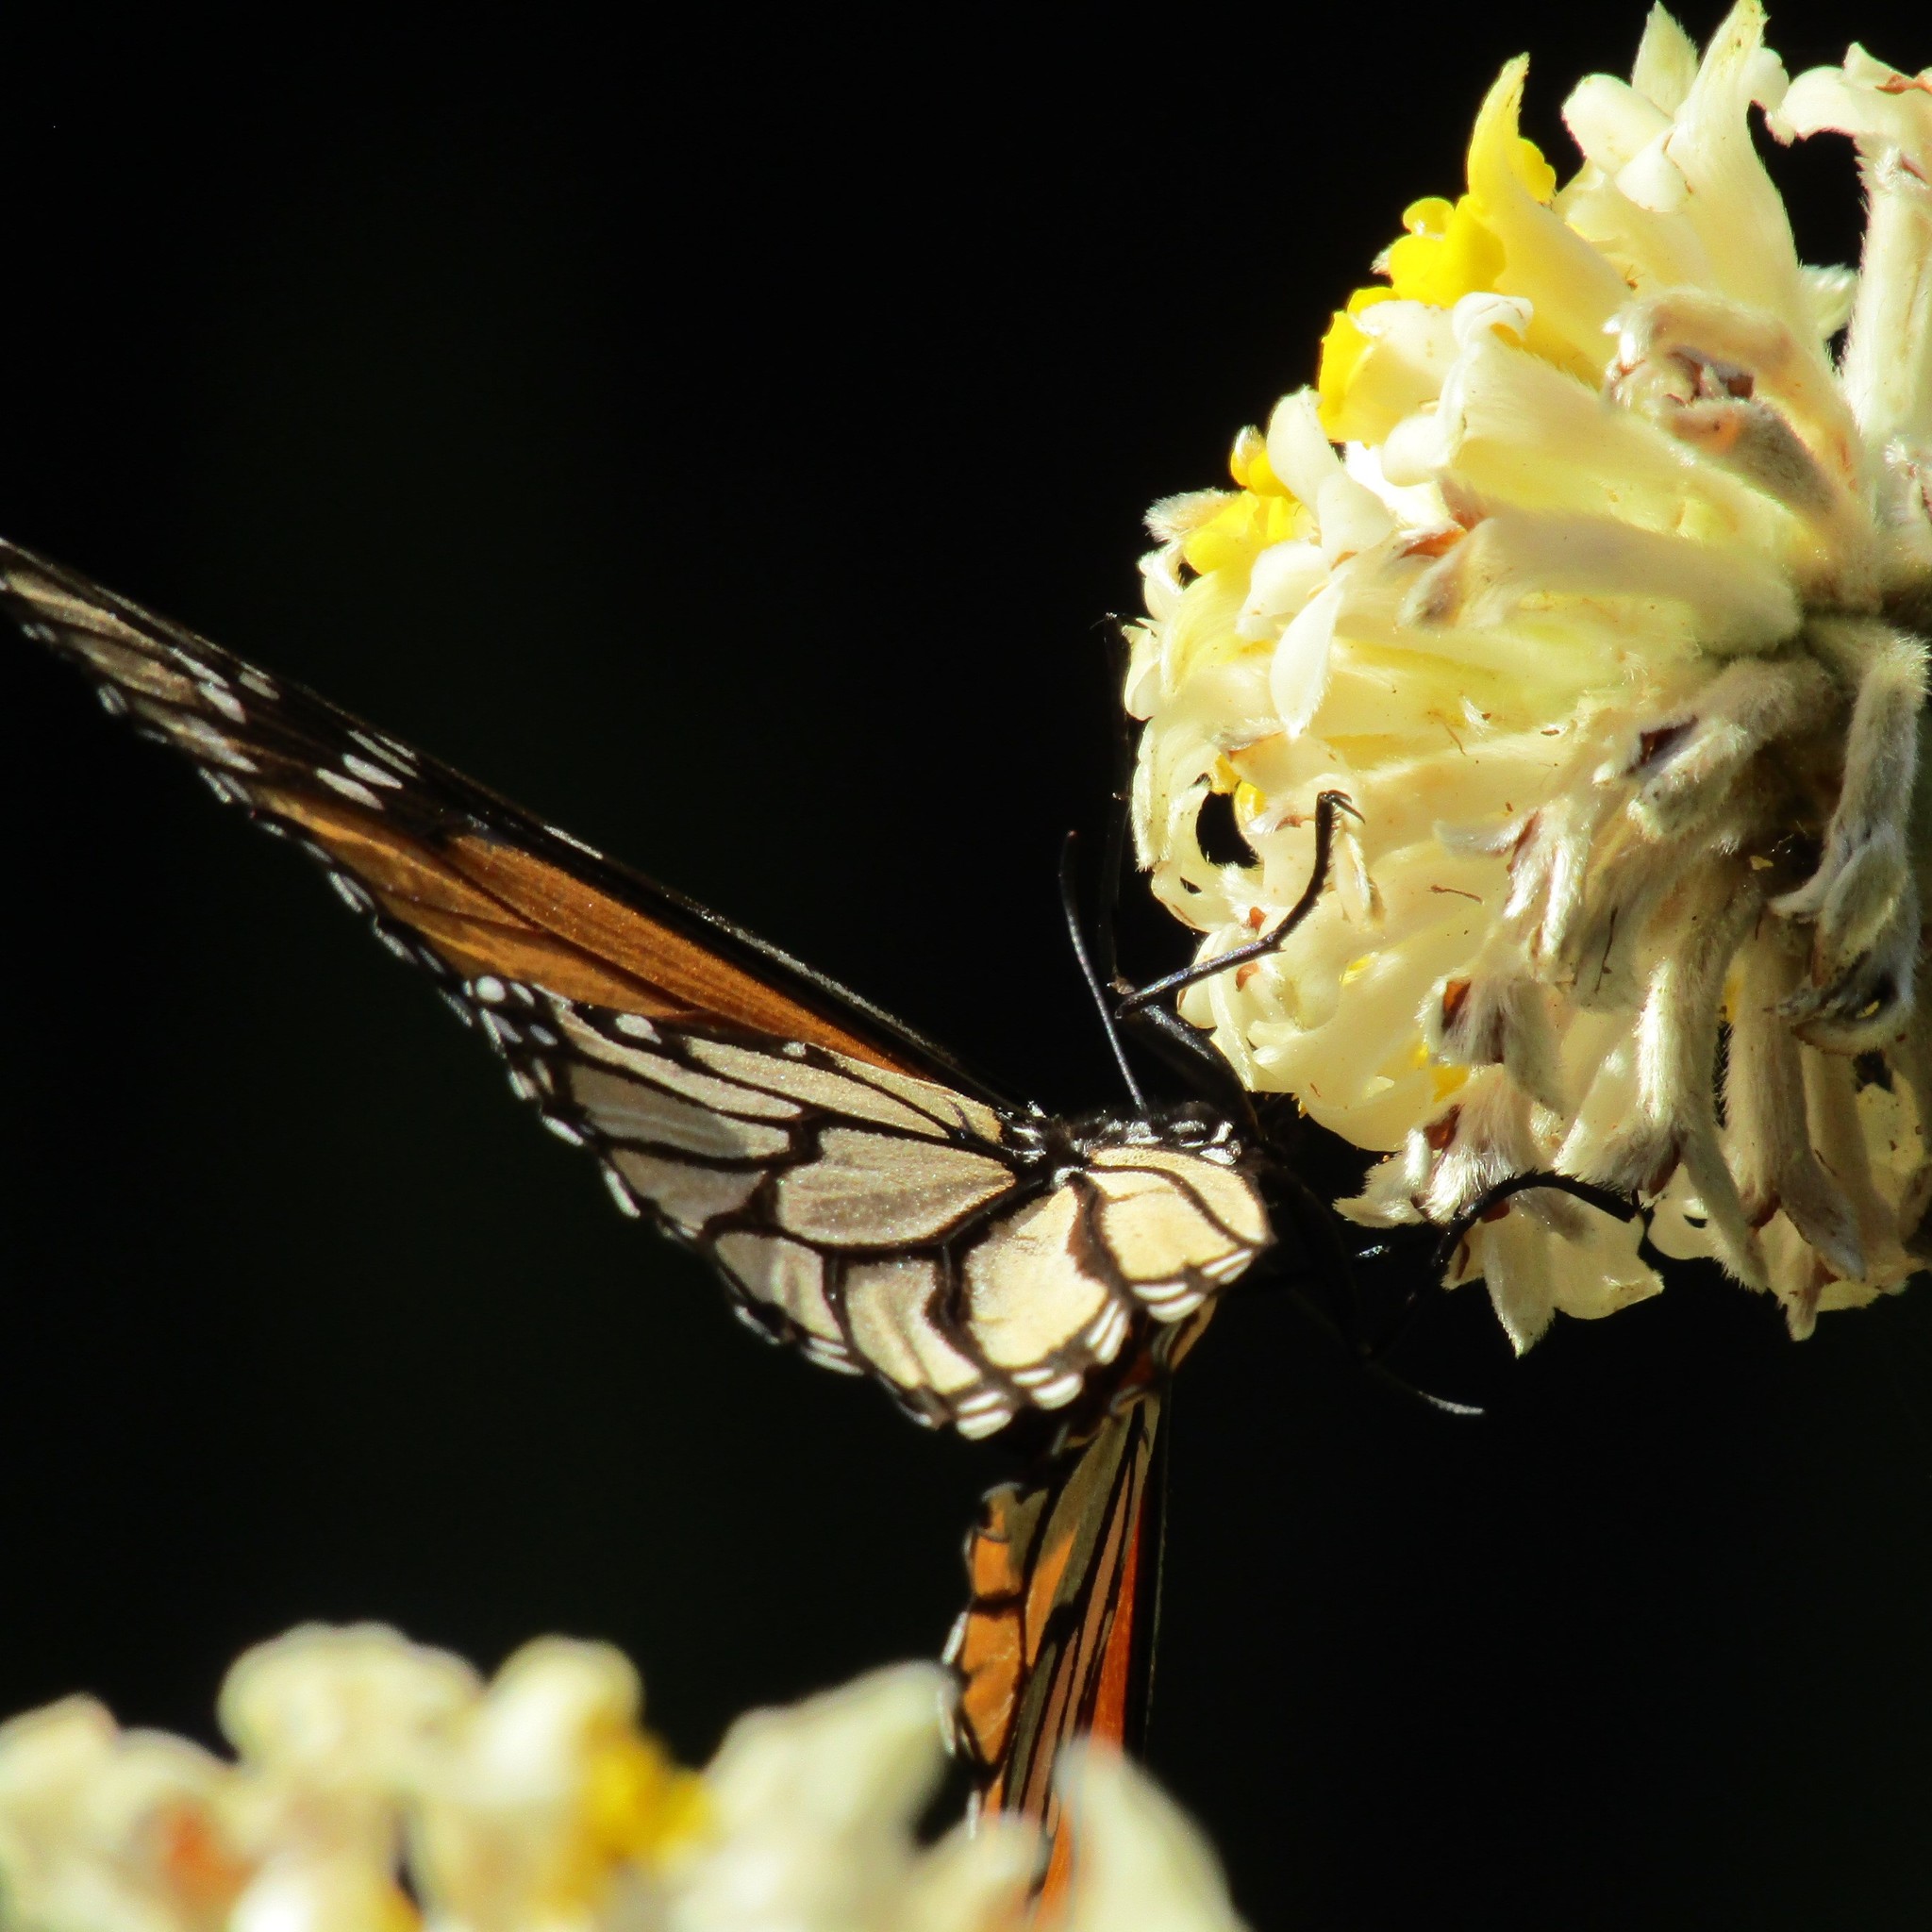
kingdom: Animalia
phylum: Arthropoda
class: Insecta
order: Lepidoptera
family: Nymphalidae
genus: Danaus
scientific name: Danaus plexippus
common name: Monarch
